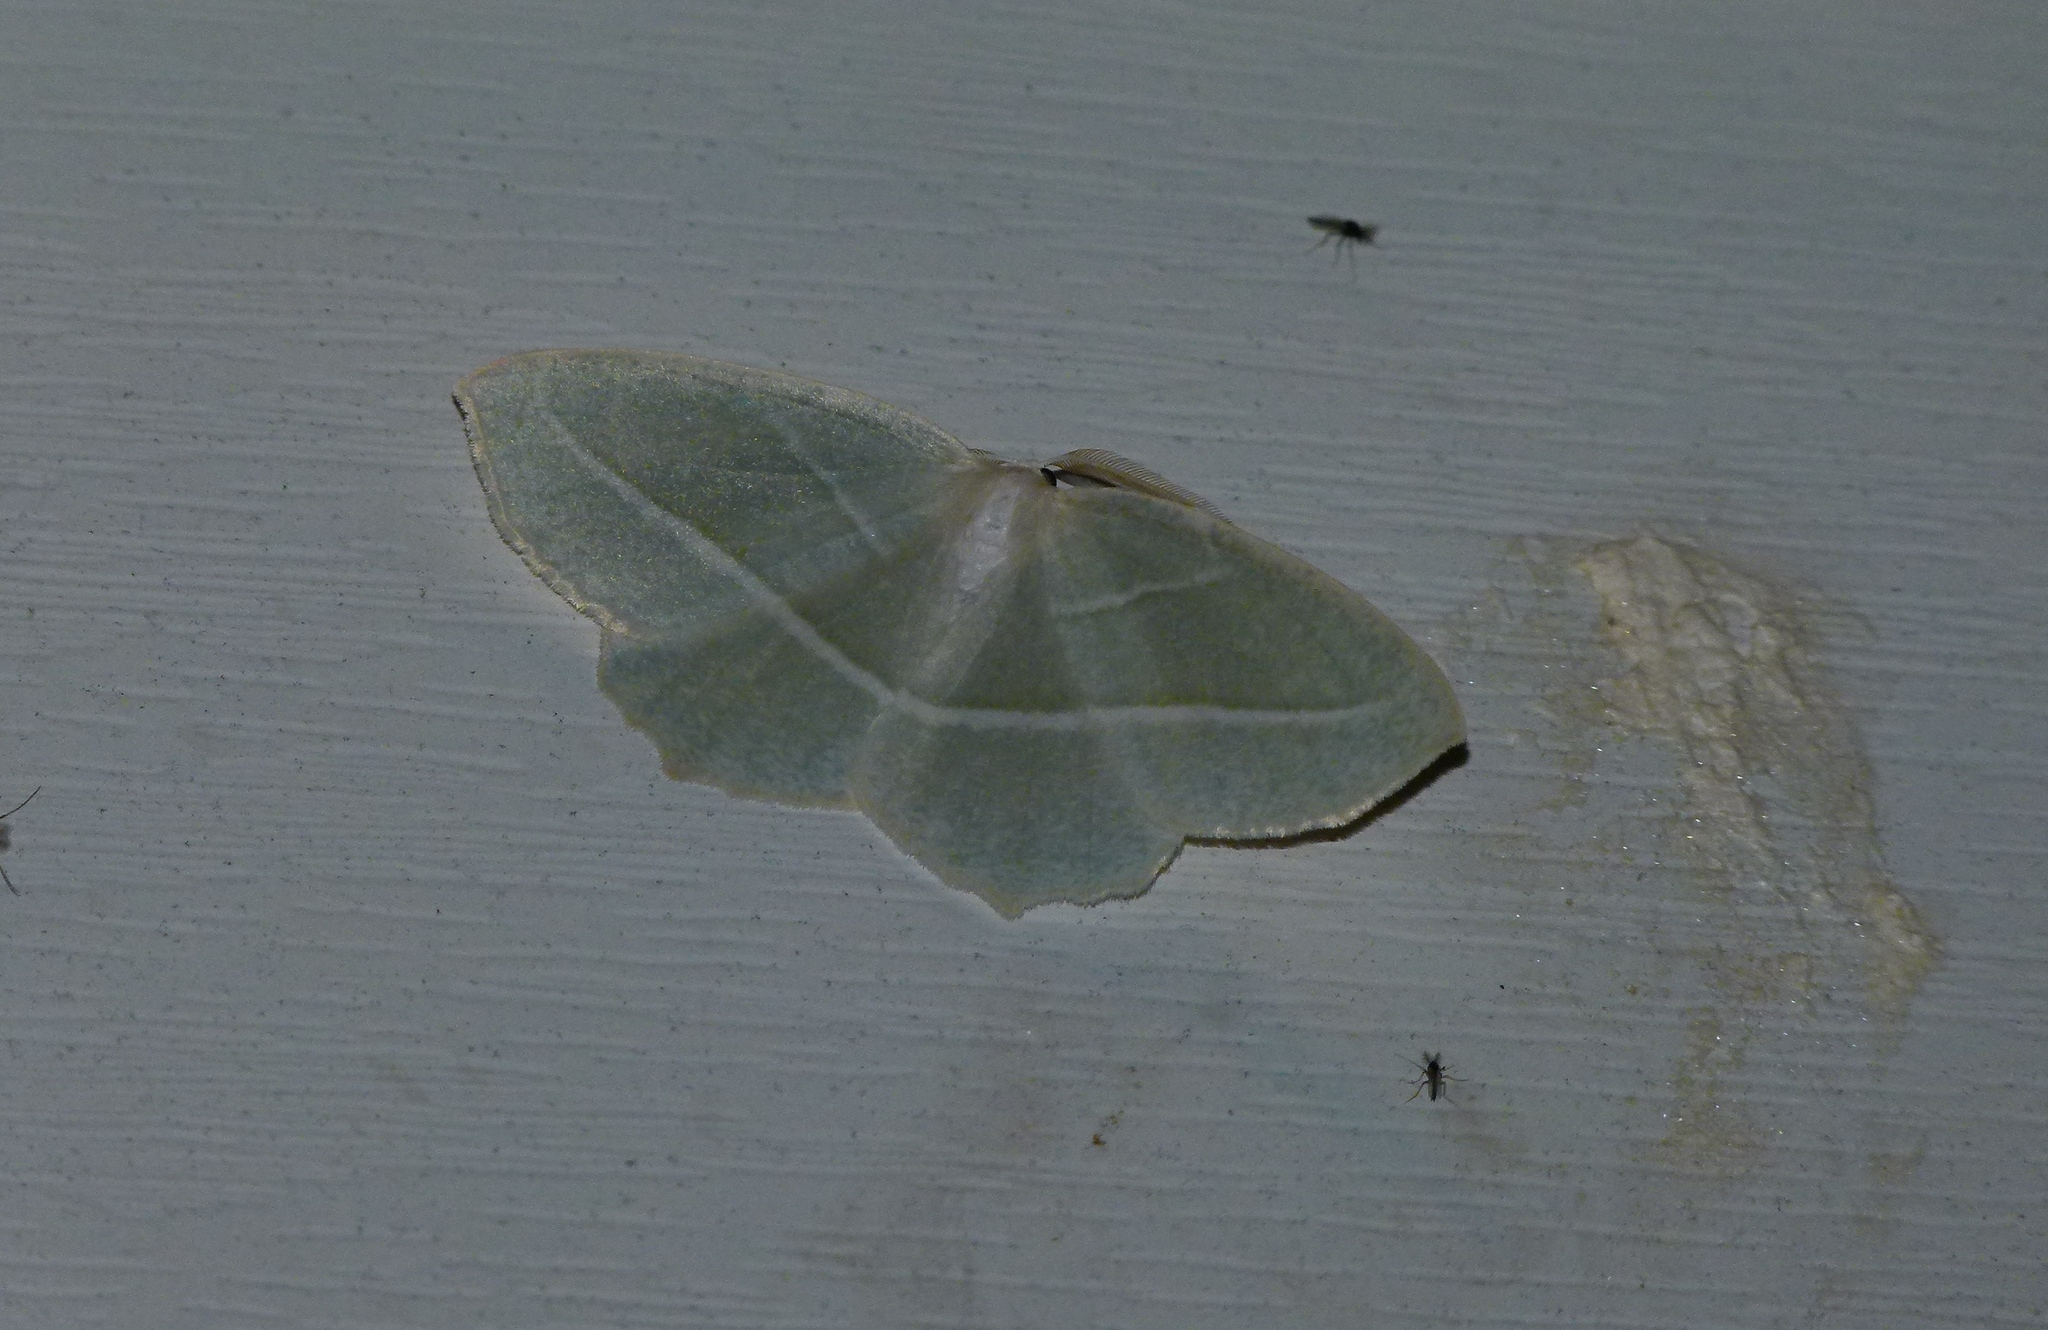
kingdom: Animalia
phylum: Arthropoda
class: Insecta
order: Lepidoptera
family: Geometridae
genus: Campaea
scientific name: Campaea perlata
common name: Fringed looper
